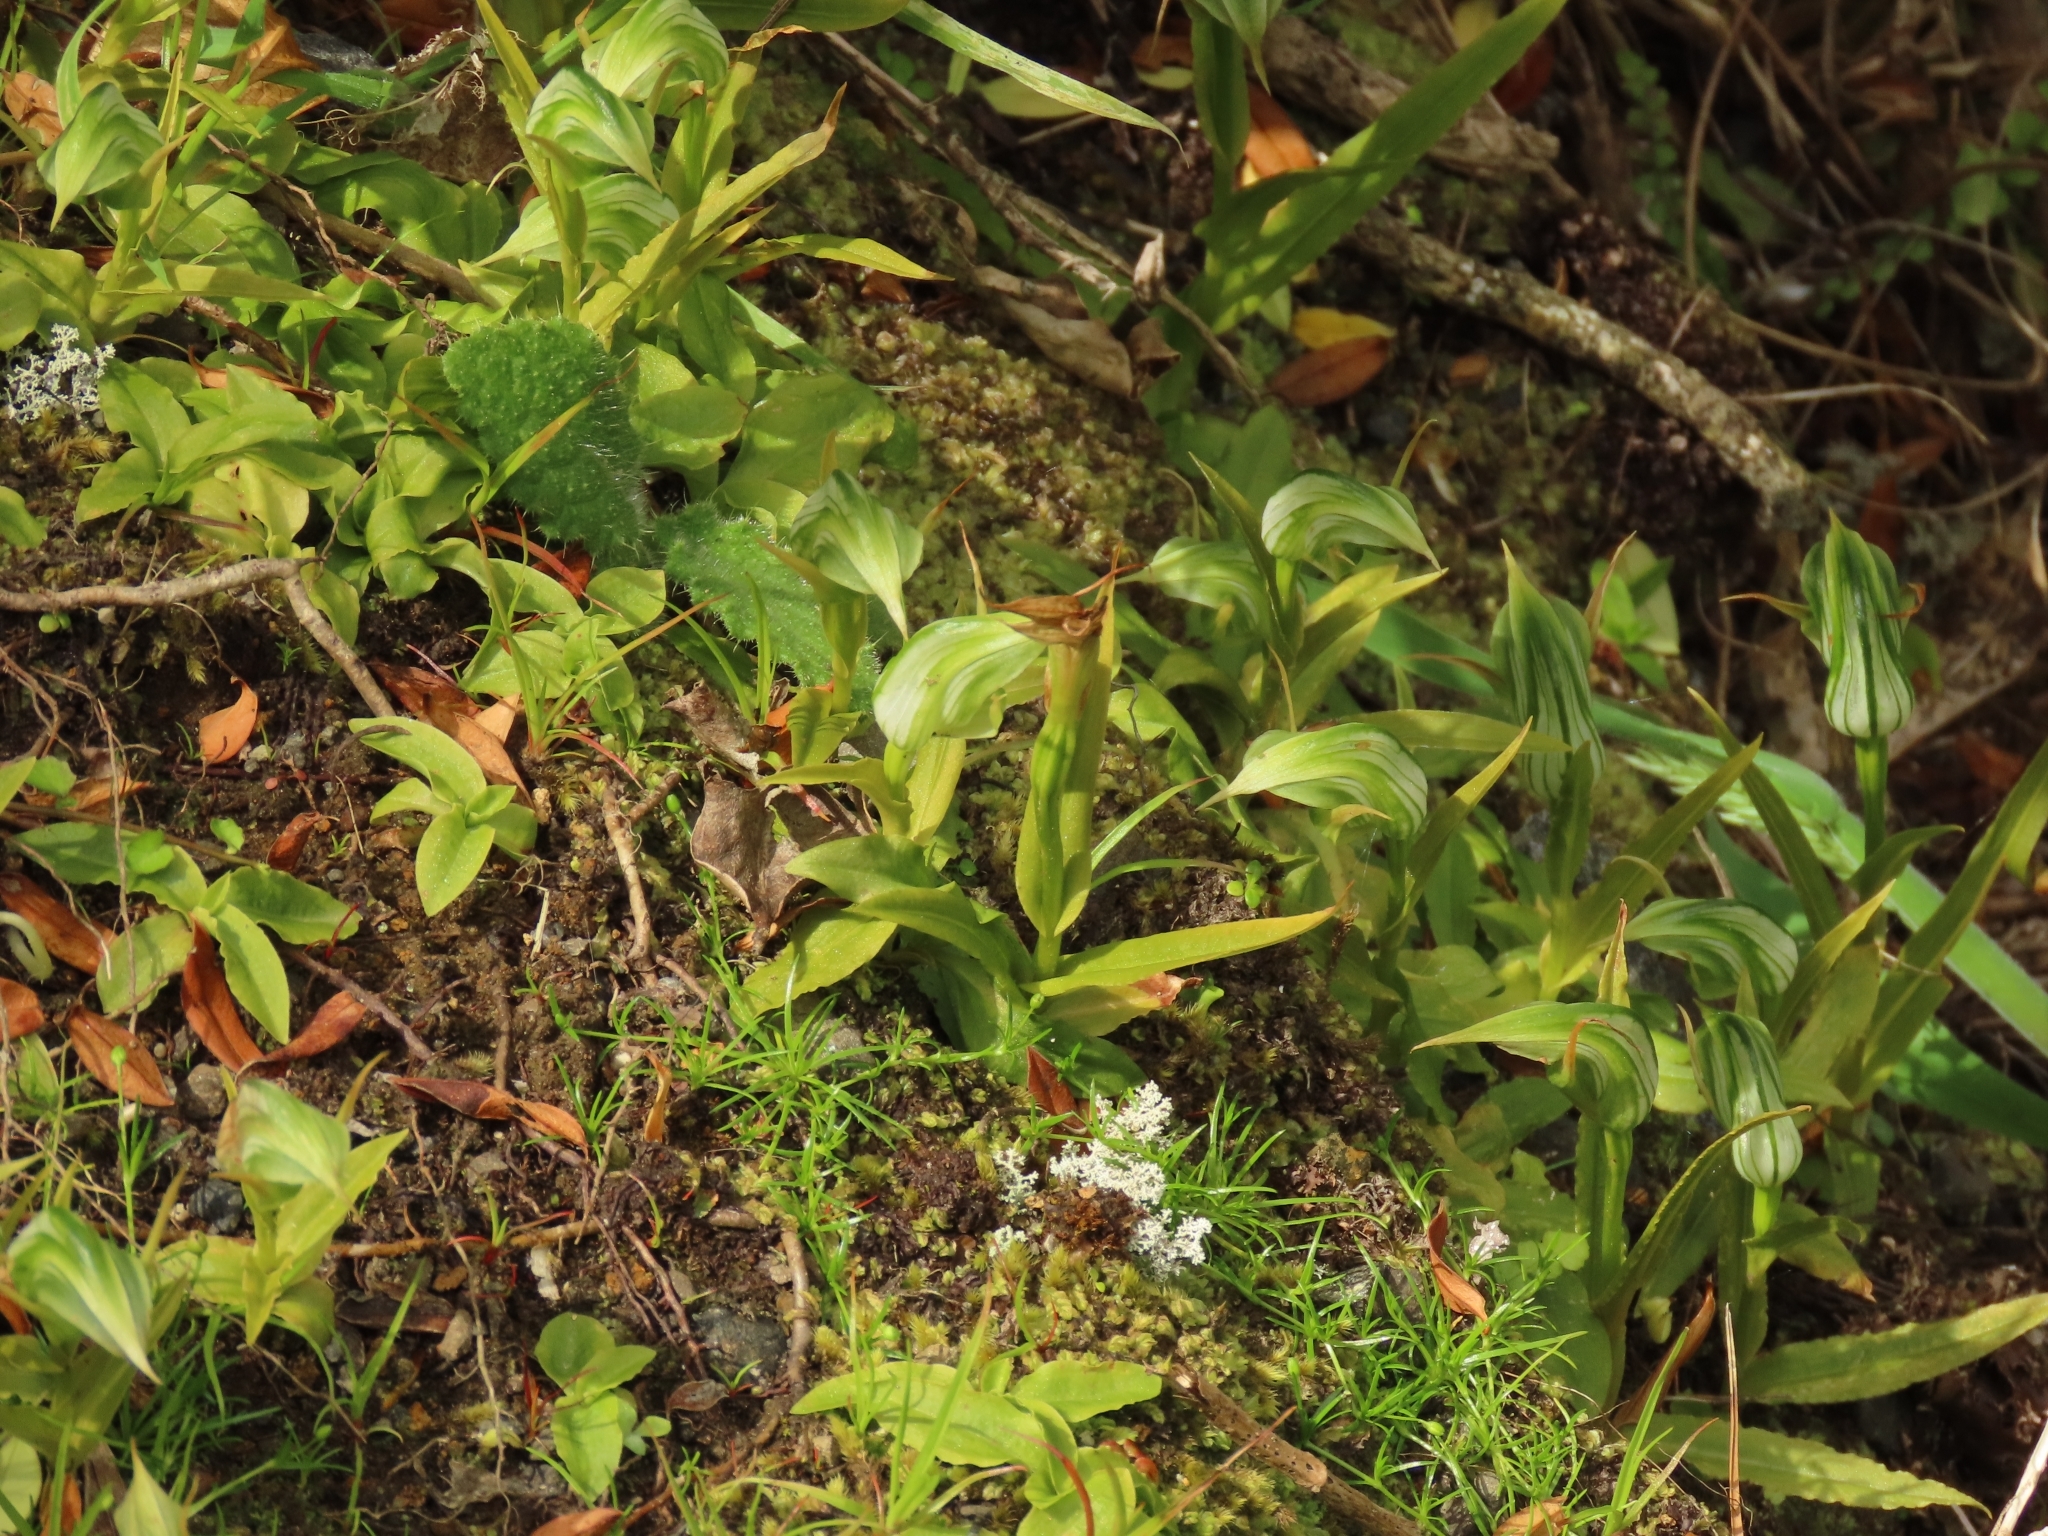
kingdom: Plantae
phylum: Tracheophyta
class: Liliopsida
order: Asparagales
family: Orchidaceae
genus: Pterostylis
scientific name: Pterostylis montana
